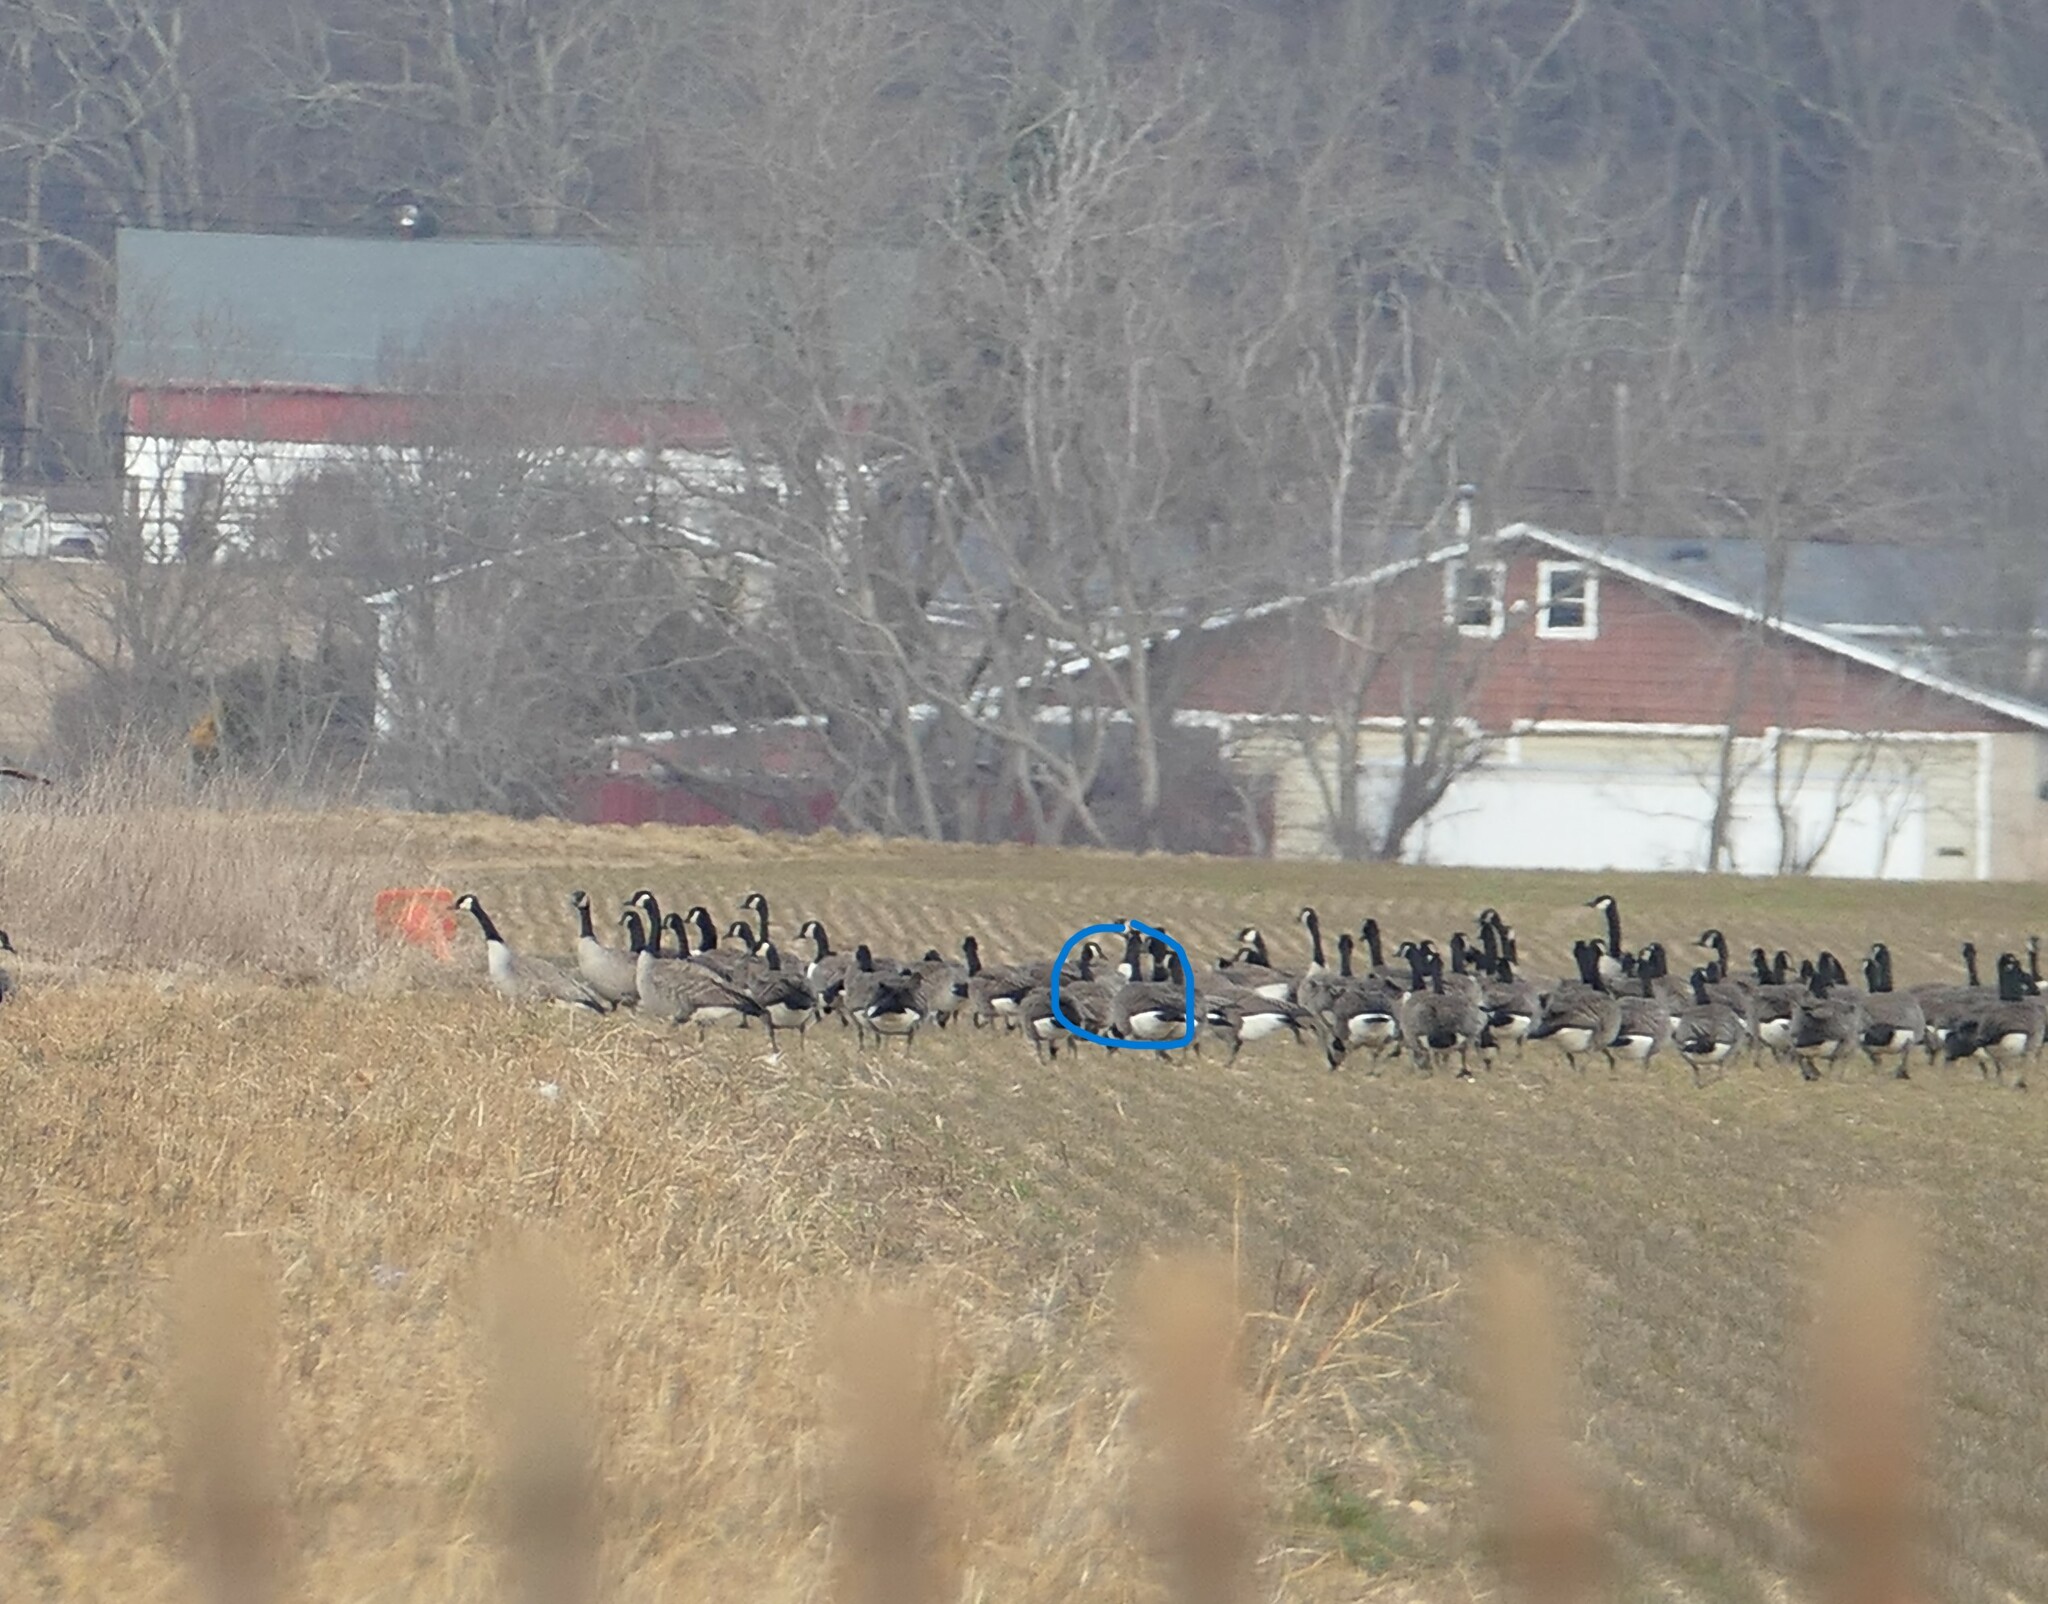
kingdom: Animalia
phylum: Chordata
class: Aves
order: Anseriformes
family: Anatidae
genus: Branta
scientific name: Branta leucopsis
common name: Barnacle goose
